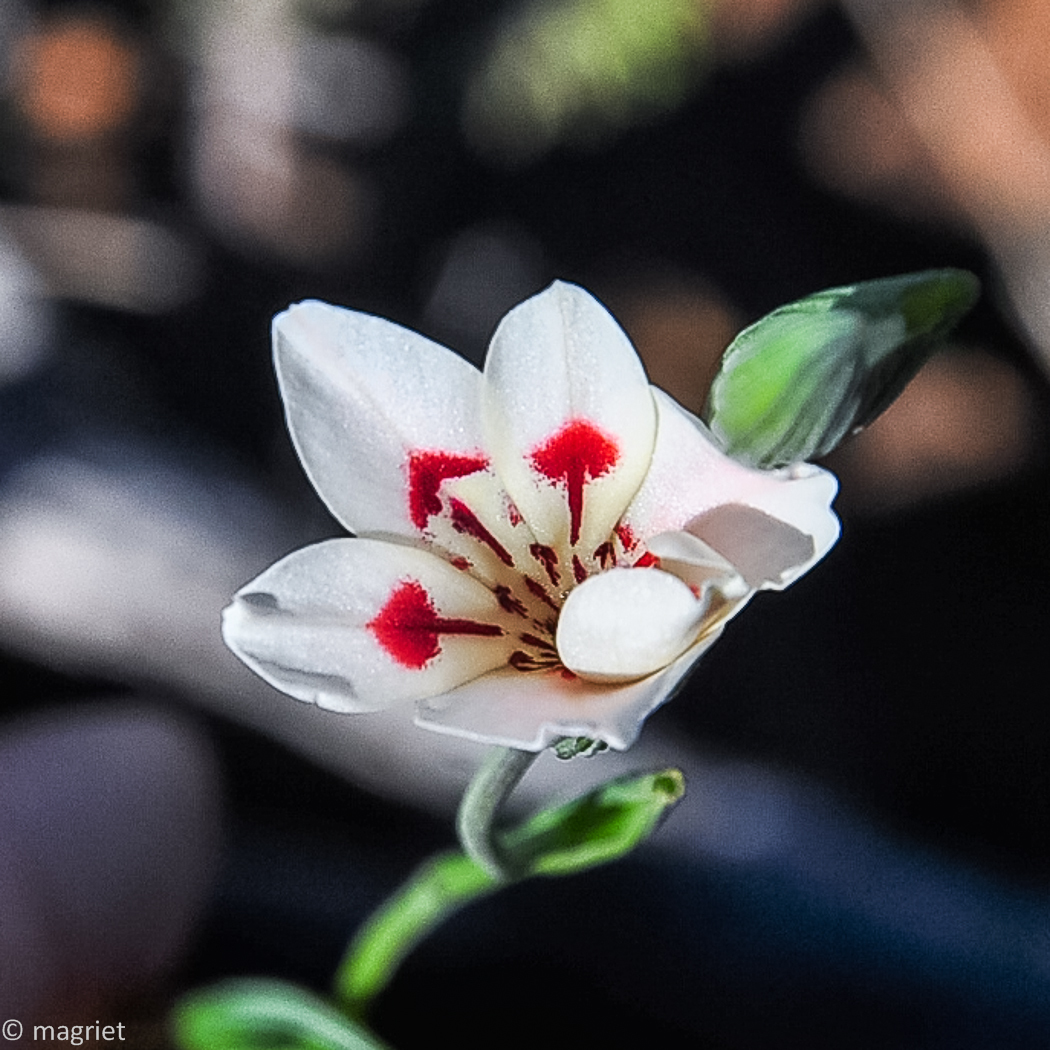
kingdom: Plantae
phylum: Tracheophyta
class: Liliopsida
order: Asparagales
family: Iridaceae
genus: Gladiolus
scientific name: Gladiolus debilis
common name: Painted-lady
